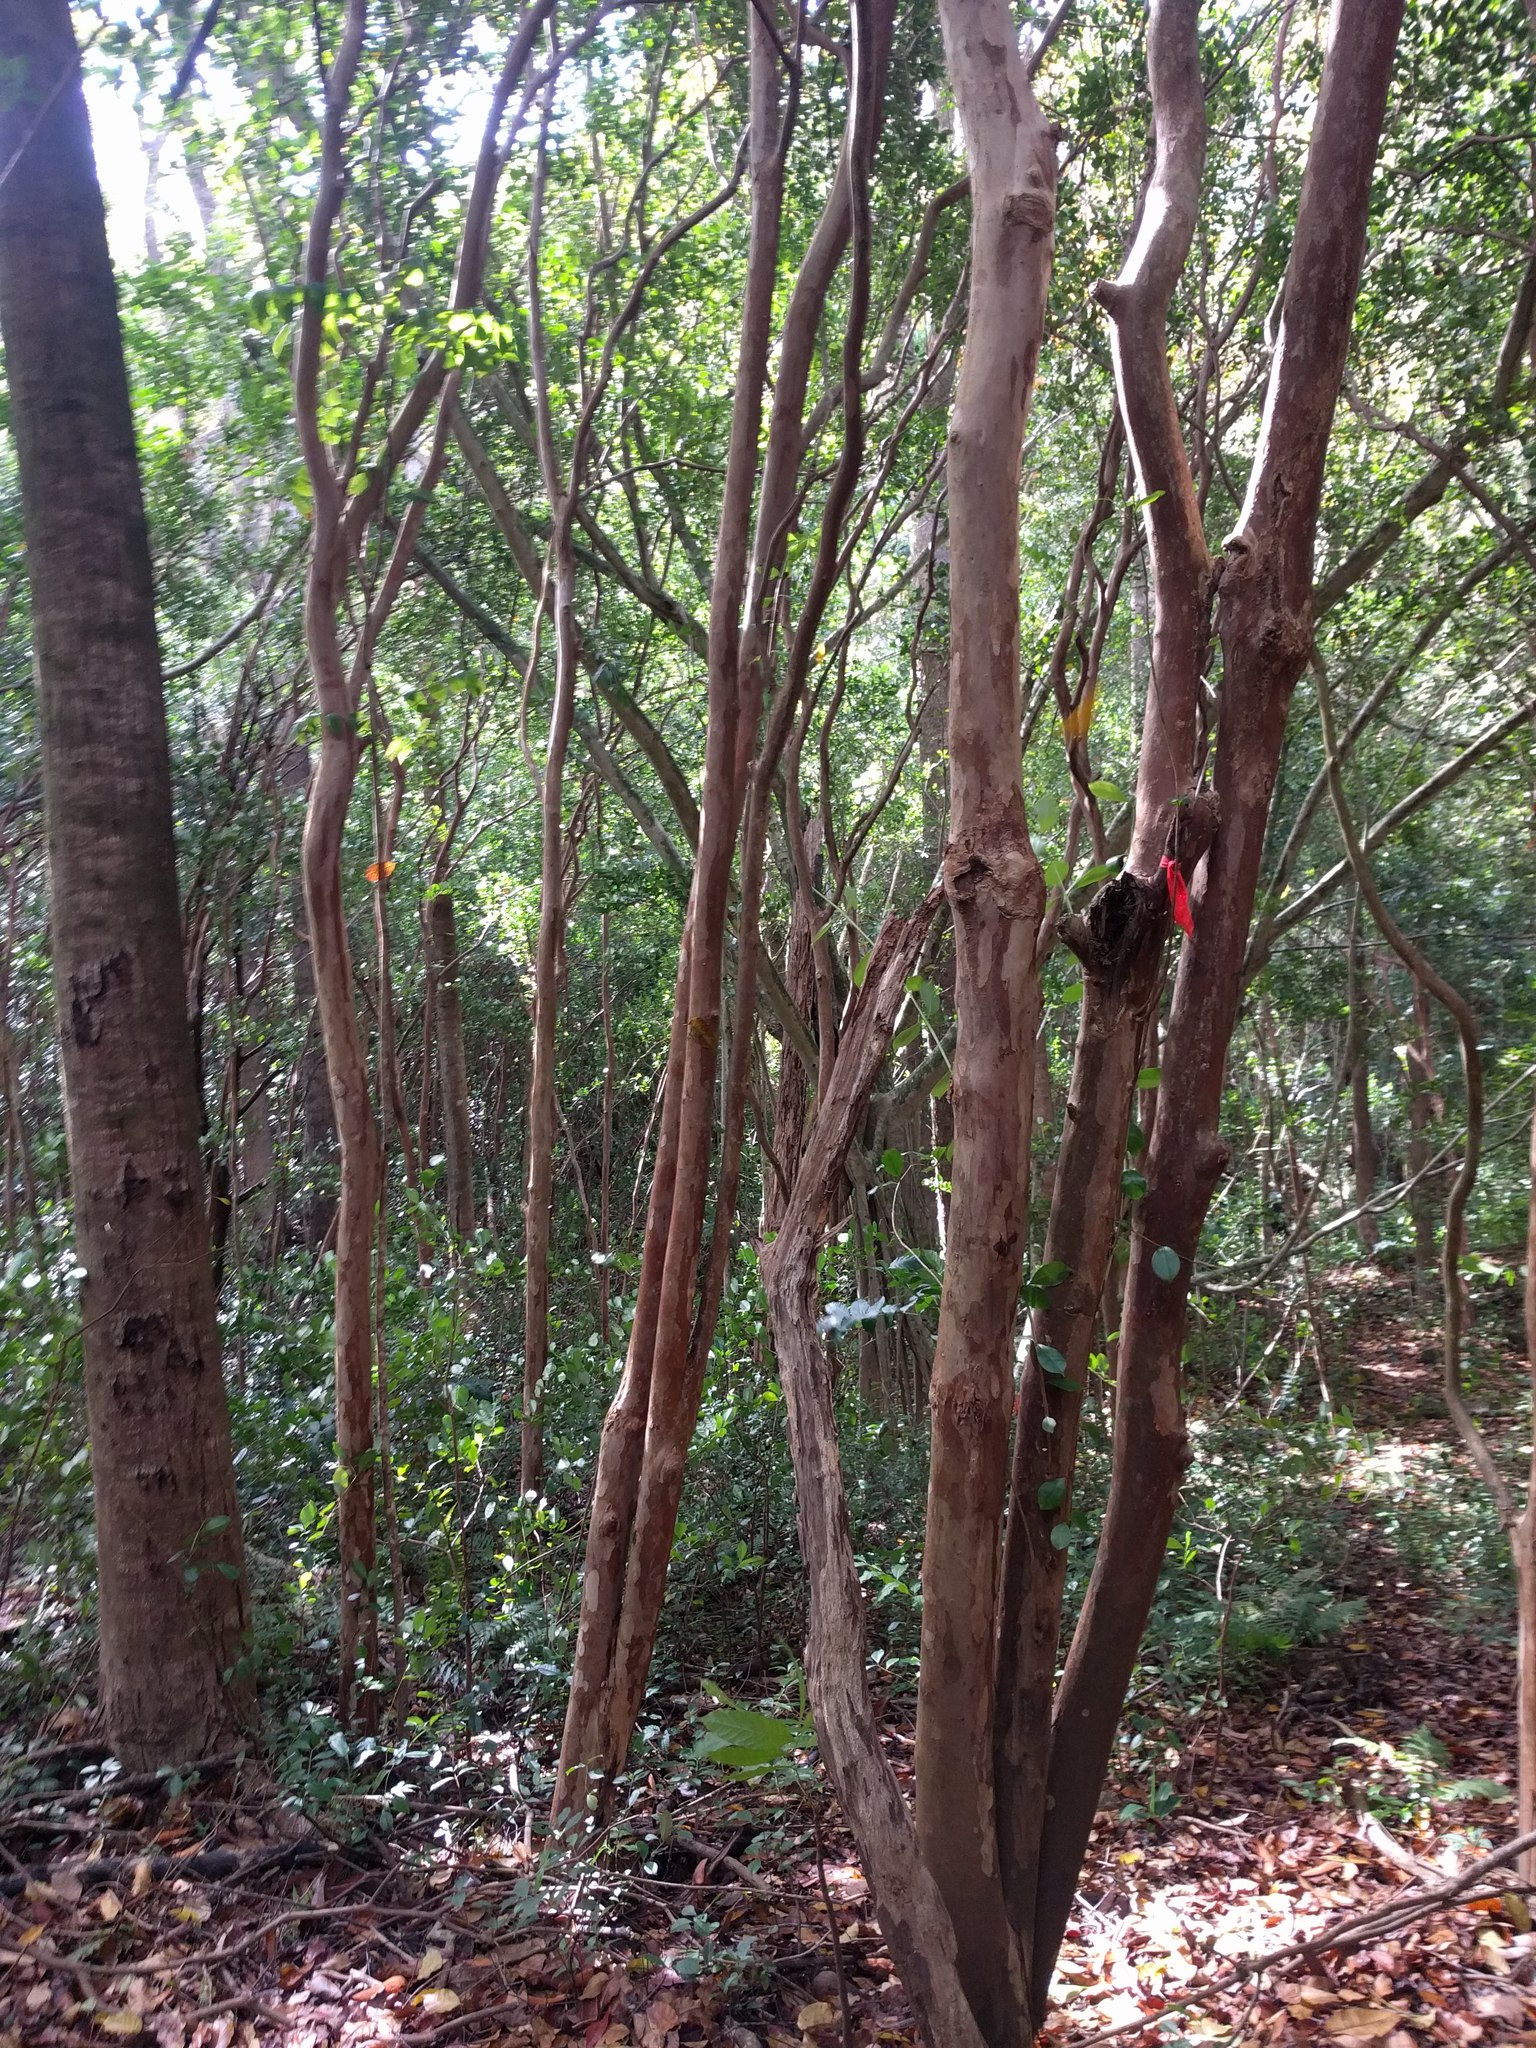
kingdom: Plantae
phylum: Tracheophyta
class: Magnoliopsida
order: Myrtales
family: Myrtaceae
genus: Psidium
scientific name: Psidium cattleianum
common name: Strawberry guava
